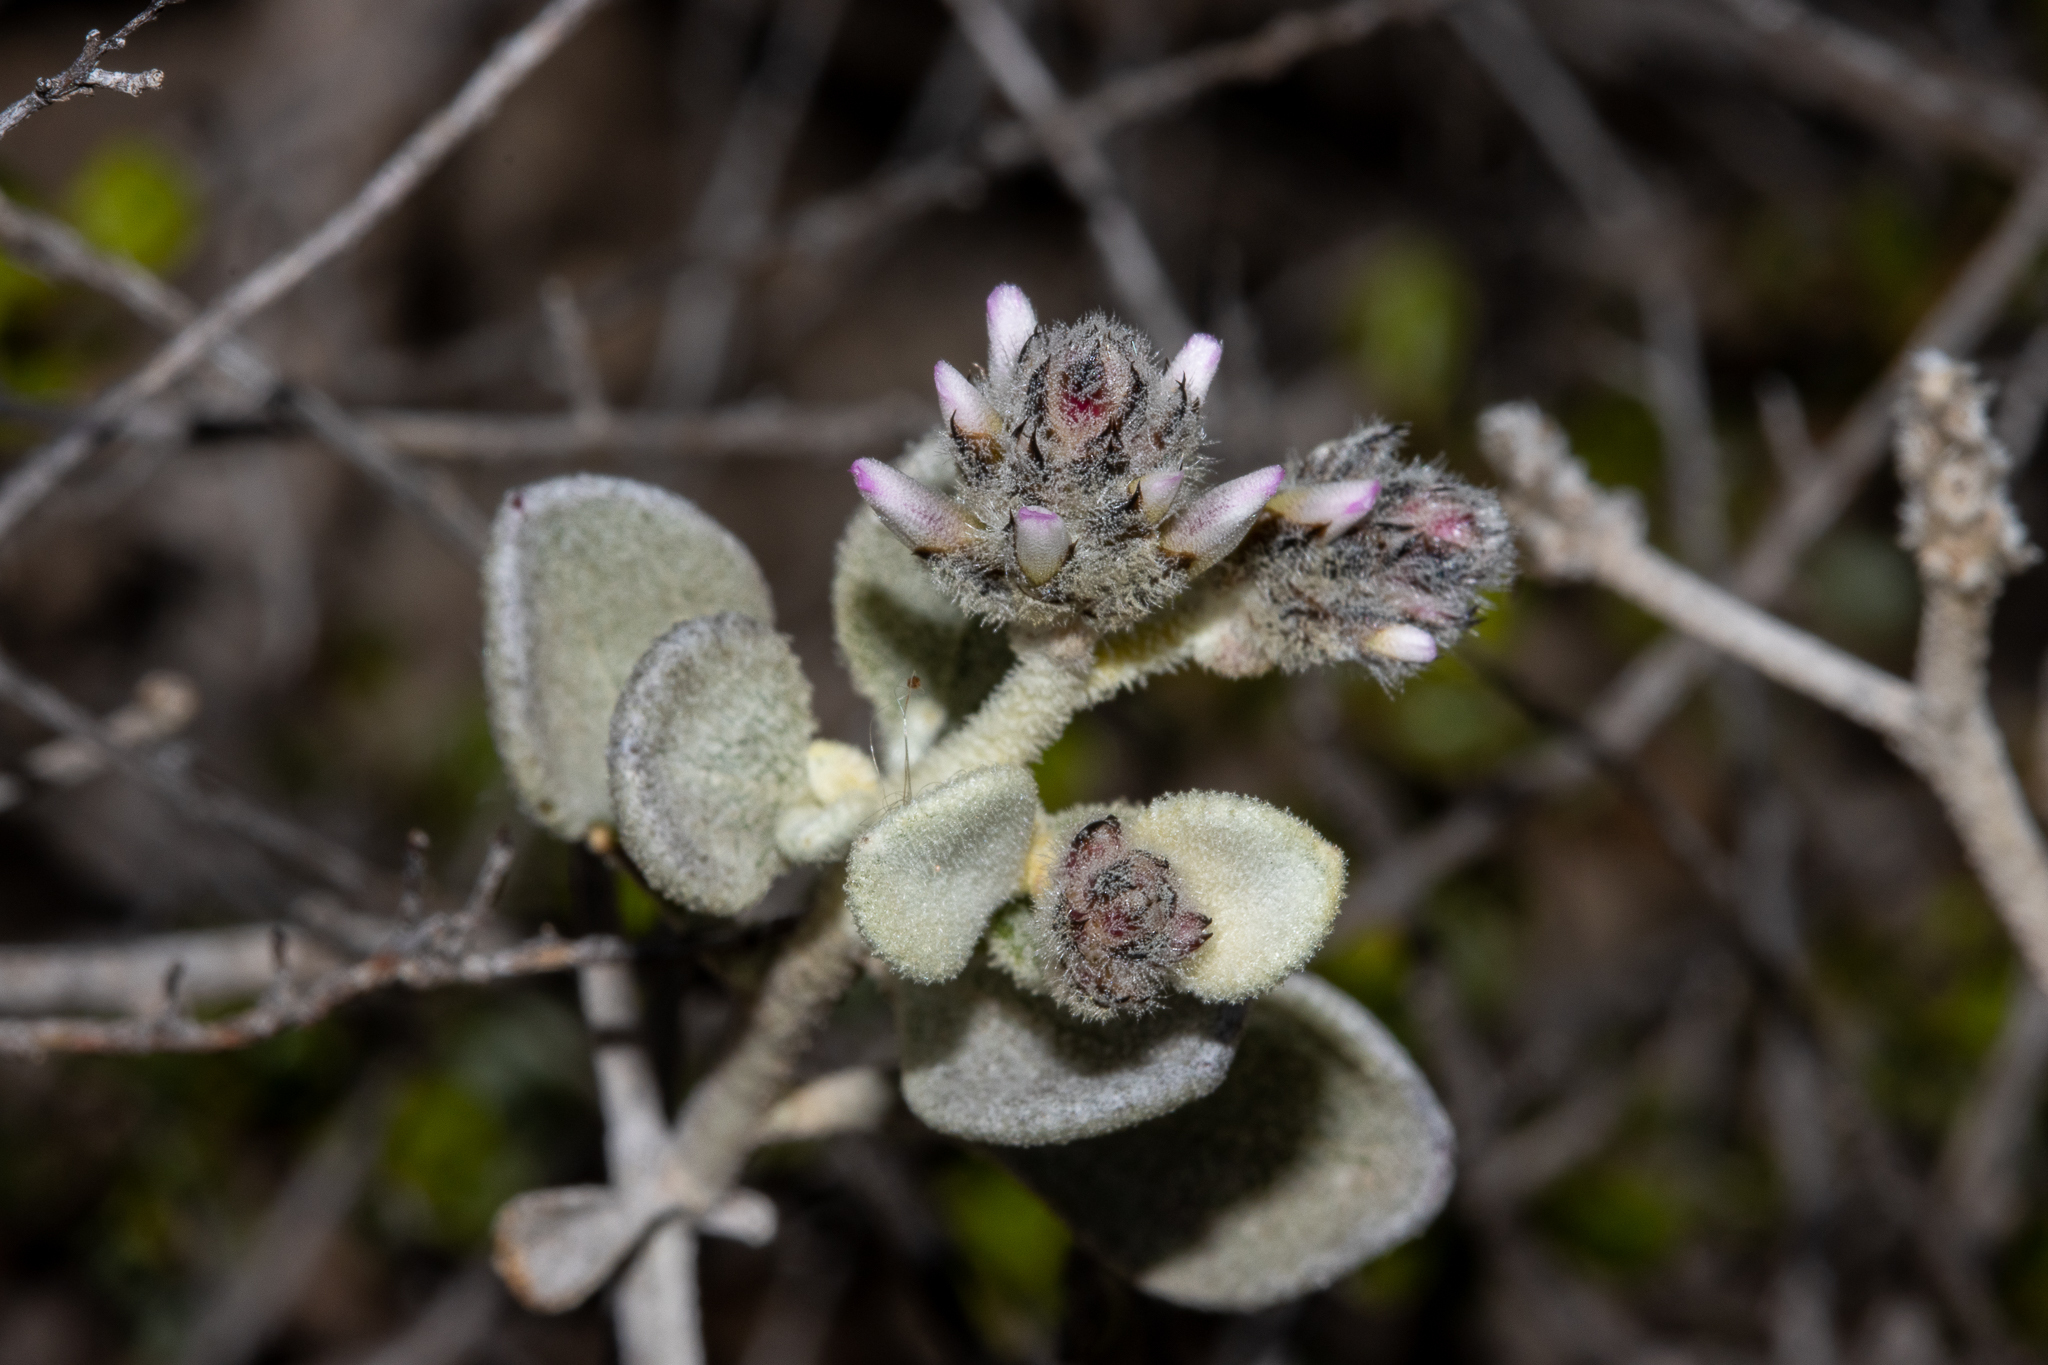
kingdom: Plantae
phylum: Tracheophyta
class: Magnoliopsida
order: Caryophyllales
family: Amaranthaceae
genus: Ptilotus
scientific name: Ptilotus obovatus
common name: Cottonbush
